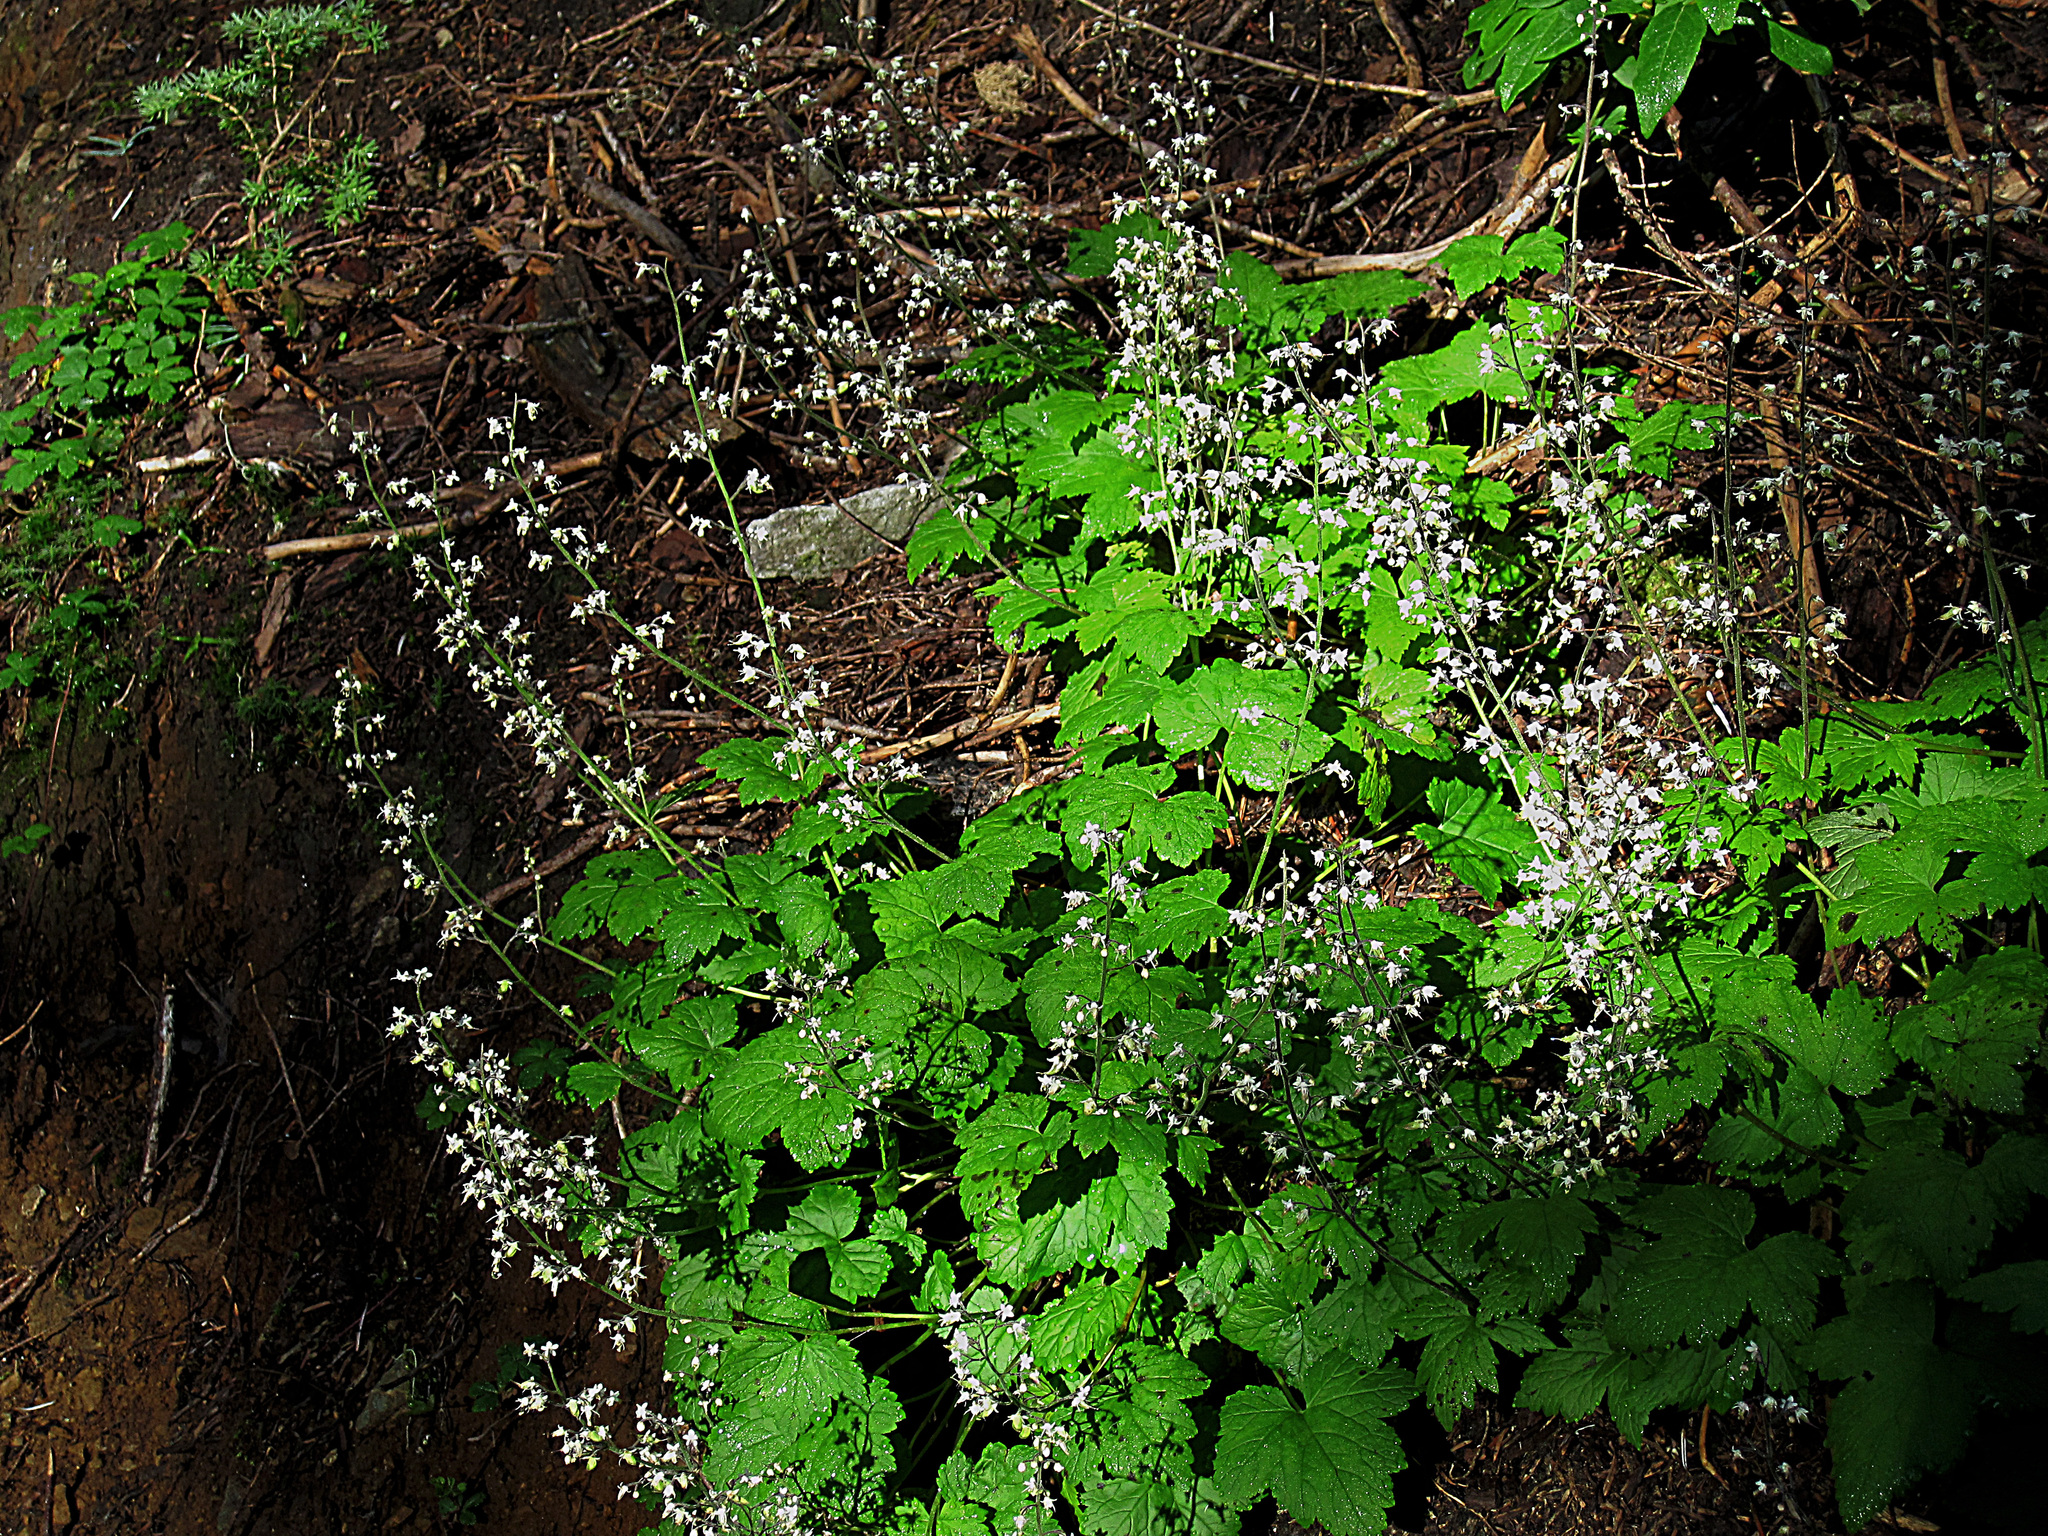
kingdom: Plantae
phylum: Tracheophyta
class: Magnoliopsida
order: Saxifragales
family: Saxifragaceae
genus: Tiarella
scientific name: Tiarella trifoliata
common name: Sugar-scoop
